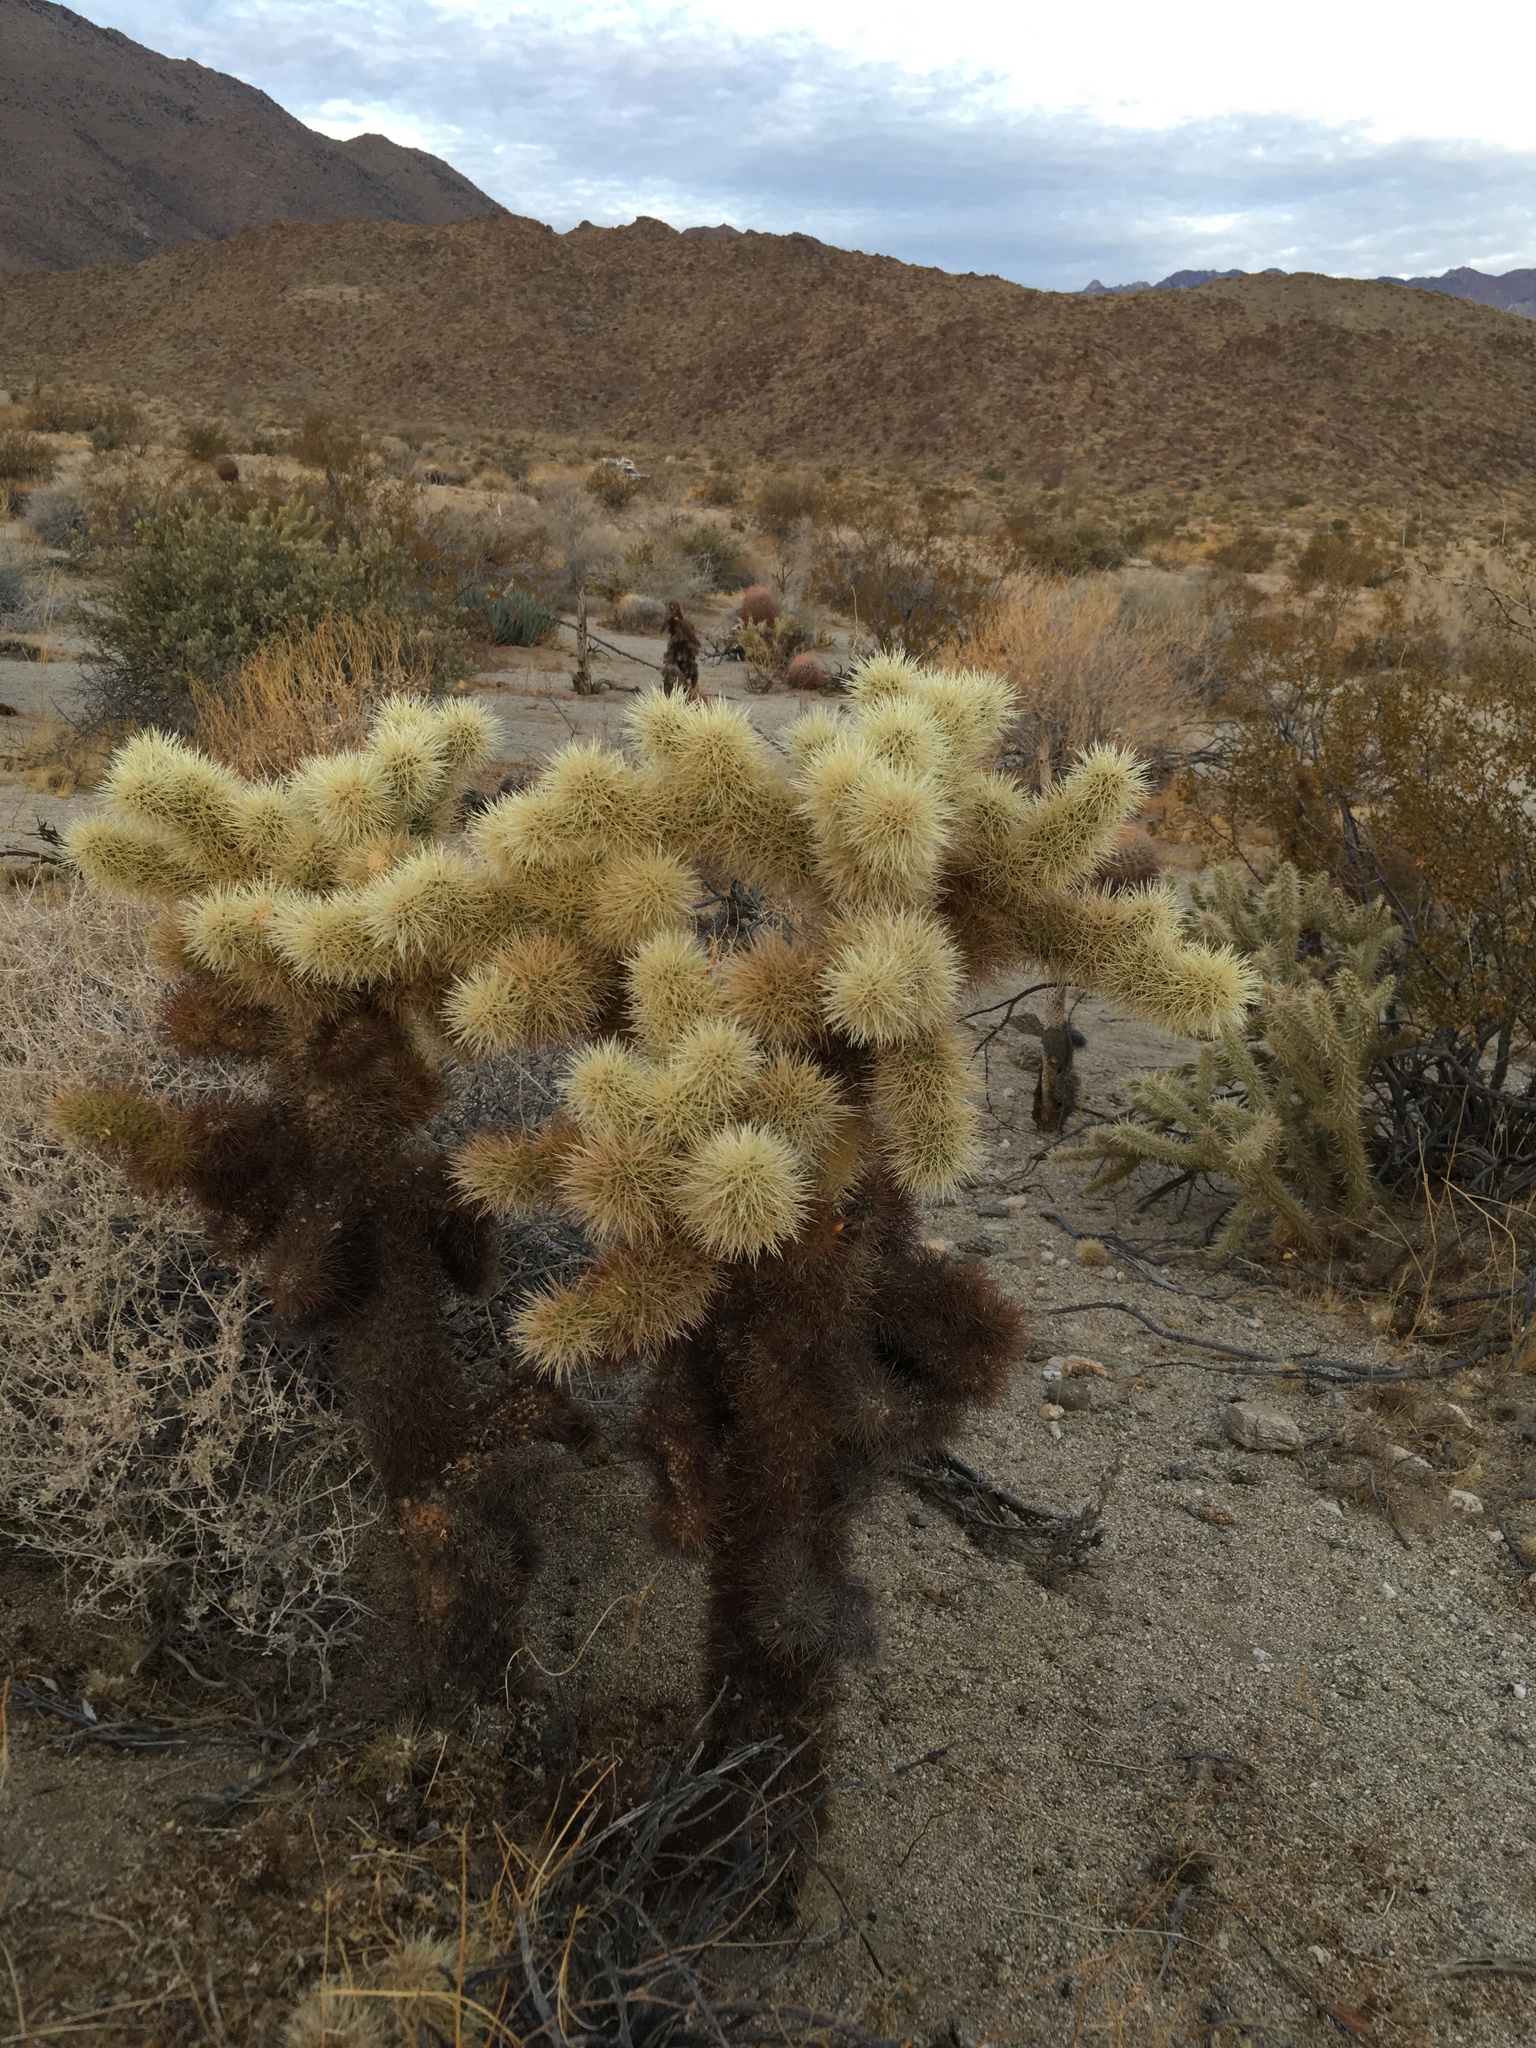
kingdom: Plantae
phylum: Tracheophyta
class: Magnoliopsida
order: Caryophyllales
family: Cactaceae
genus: Cylindropuntia
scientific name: Cylindropuntia fosbergii
